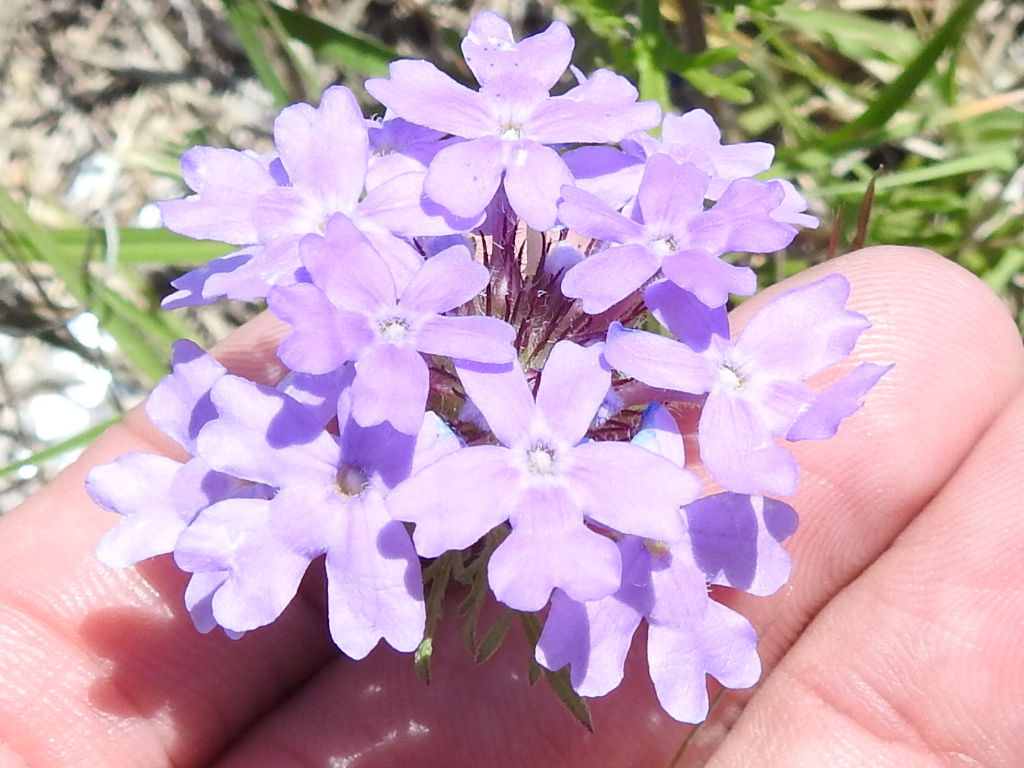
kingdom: Plantae
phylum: Tracheophyta
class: Magnoliopsida
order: Lamiales
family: Verbenaceae
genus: Verbena
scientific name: Verbena bipinnatifida
